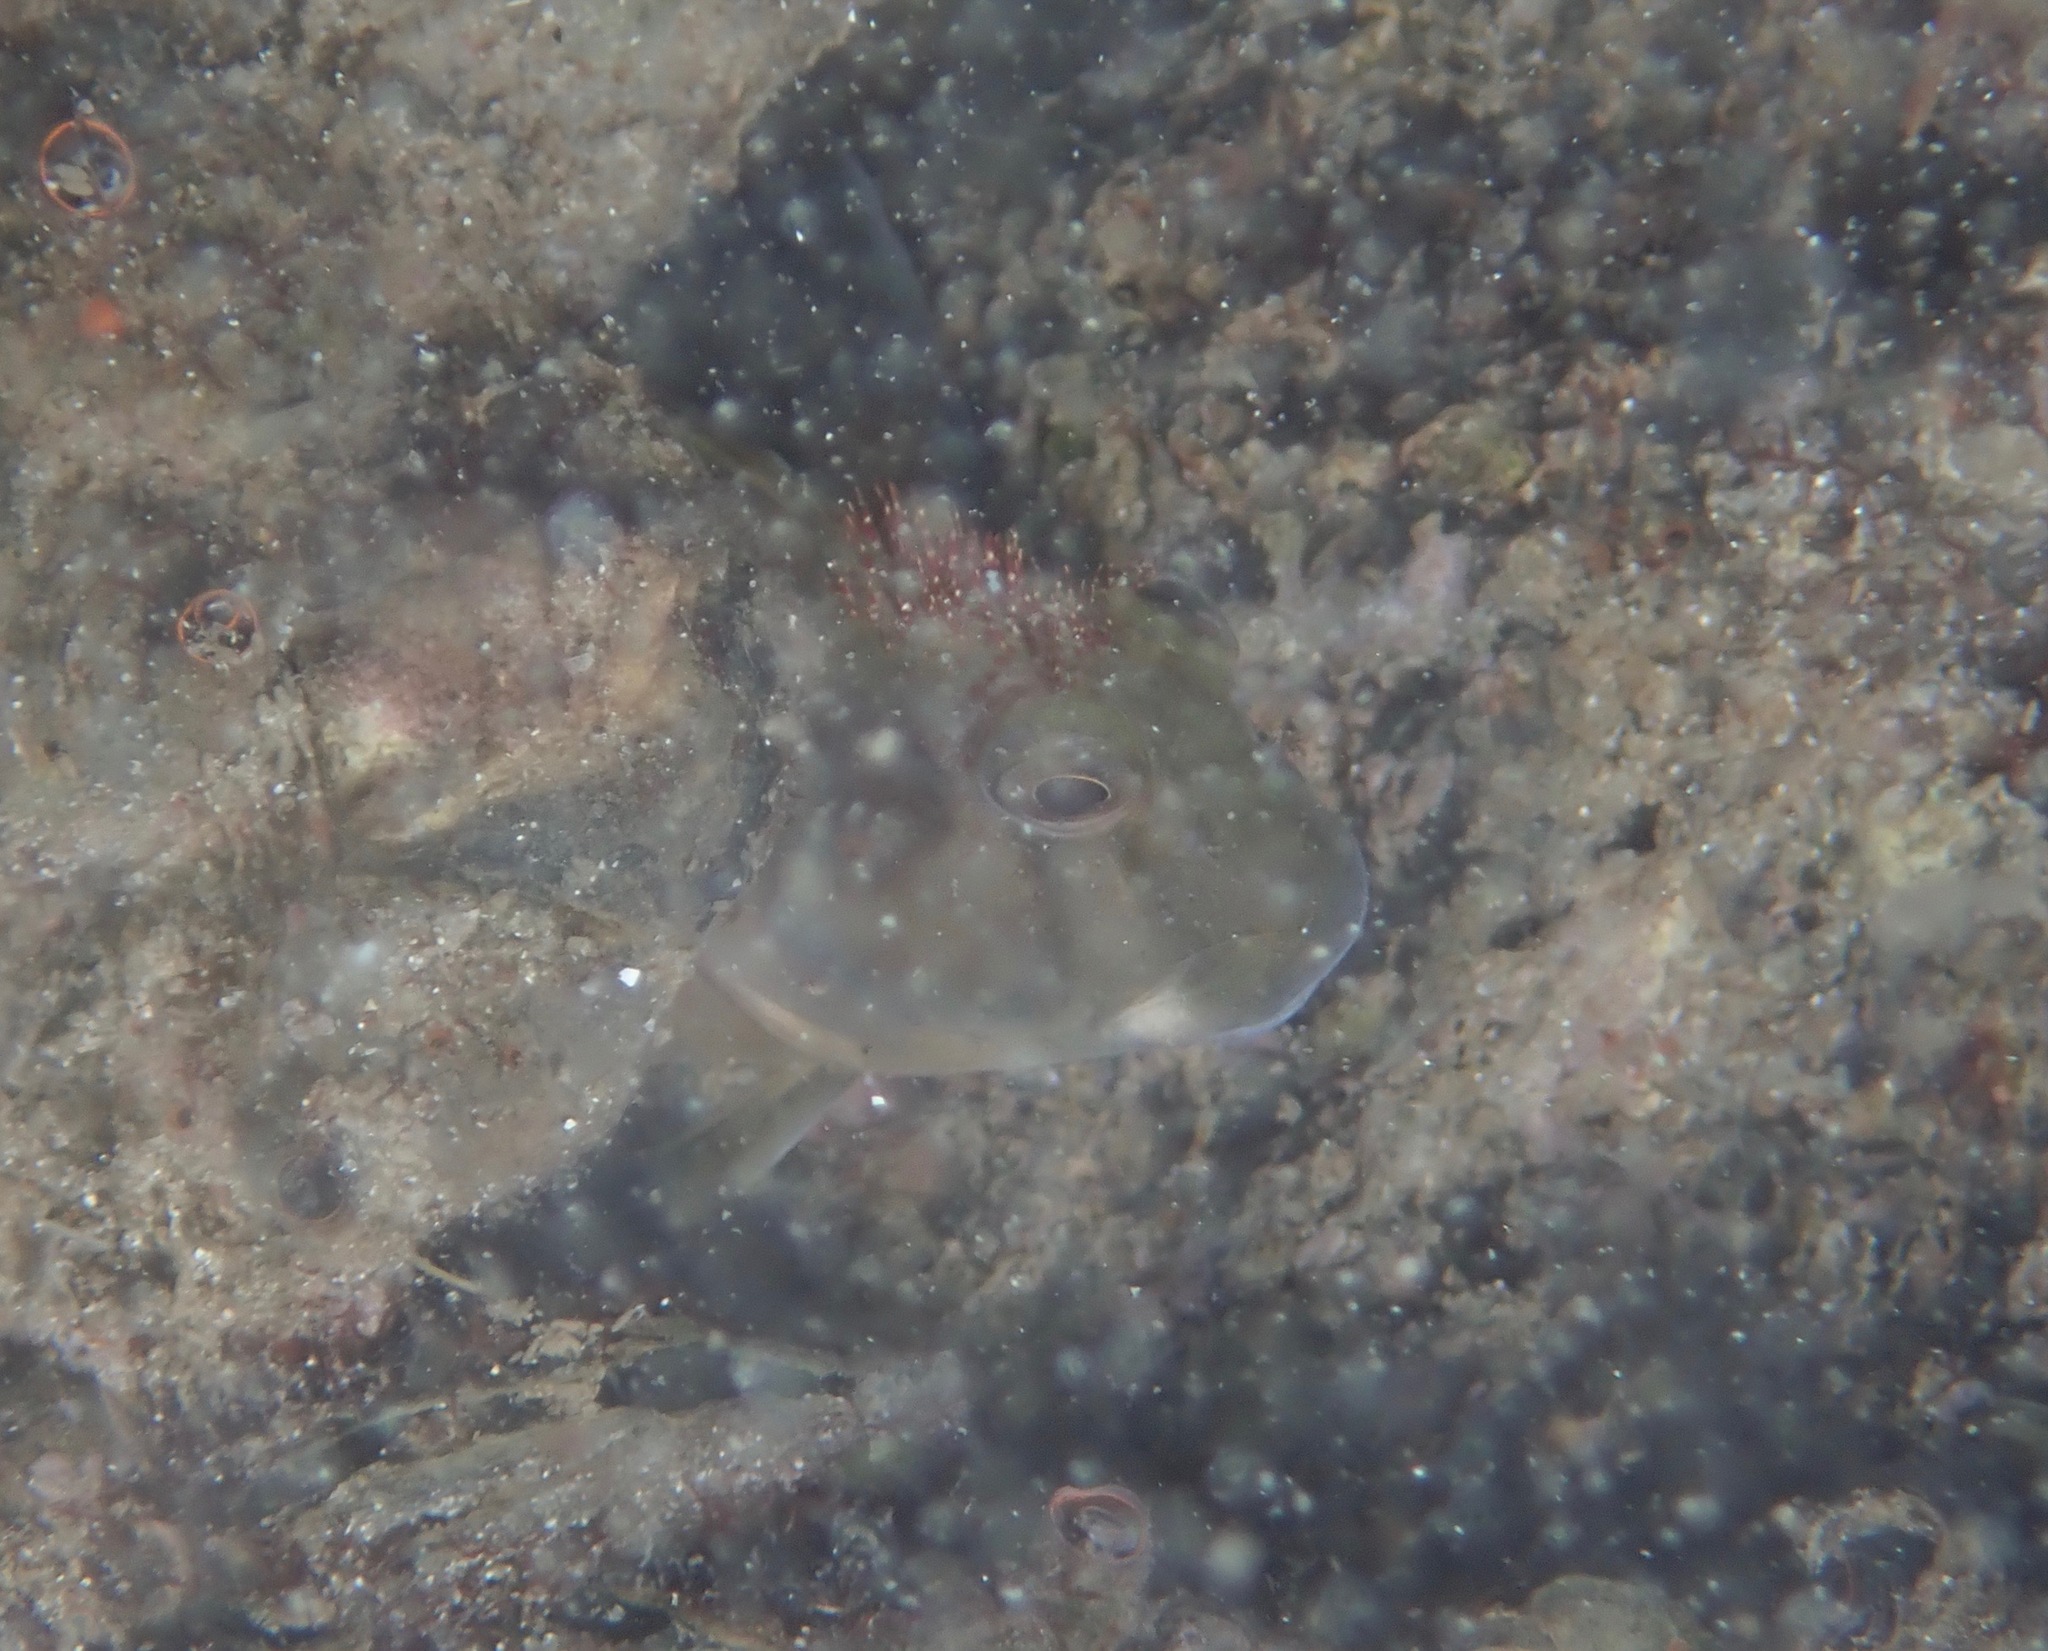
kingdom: Animalia
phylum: Chordata
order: Perciformes
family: Blenniidae
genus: Scartella
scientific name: Scartella cristata
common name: Molly miller
